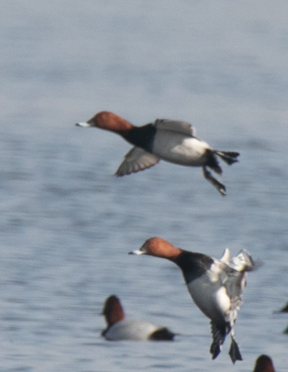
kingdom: Animalia
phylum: Chordata
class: Aves
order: Anseriformes
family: Anatidae
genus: Aythya
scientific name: Aythya ferina
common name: Common pochard
